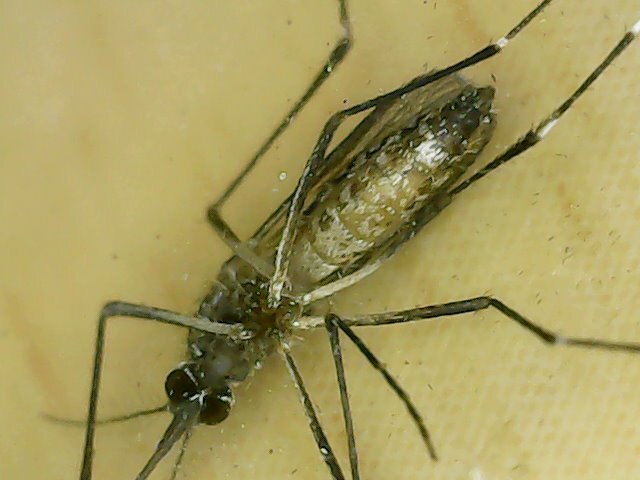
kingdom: Animalia
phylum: Arthropoda
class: Insecta
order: Diptera
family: Culicidae
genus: Aedes
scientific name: Aedes aegypti
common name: Yellow fever mosquito
